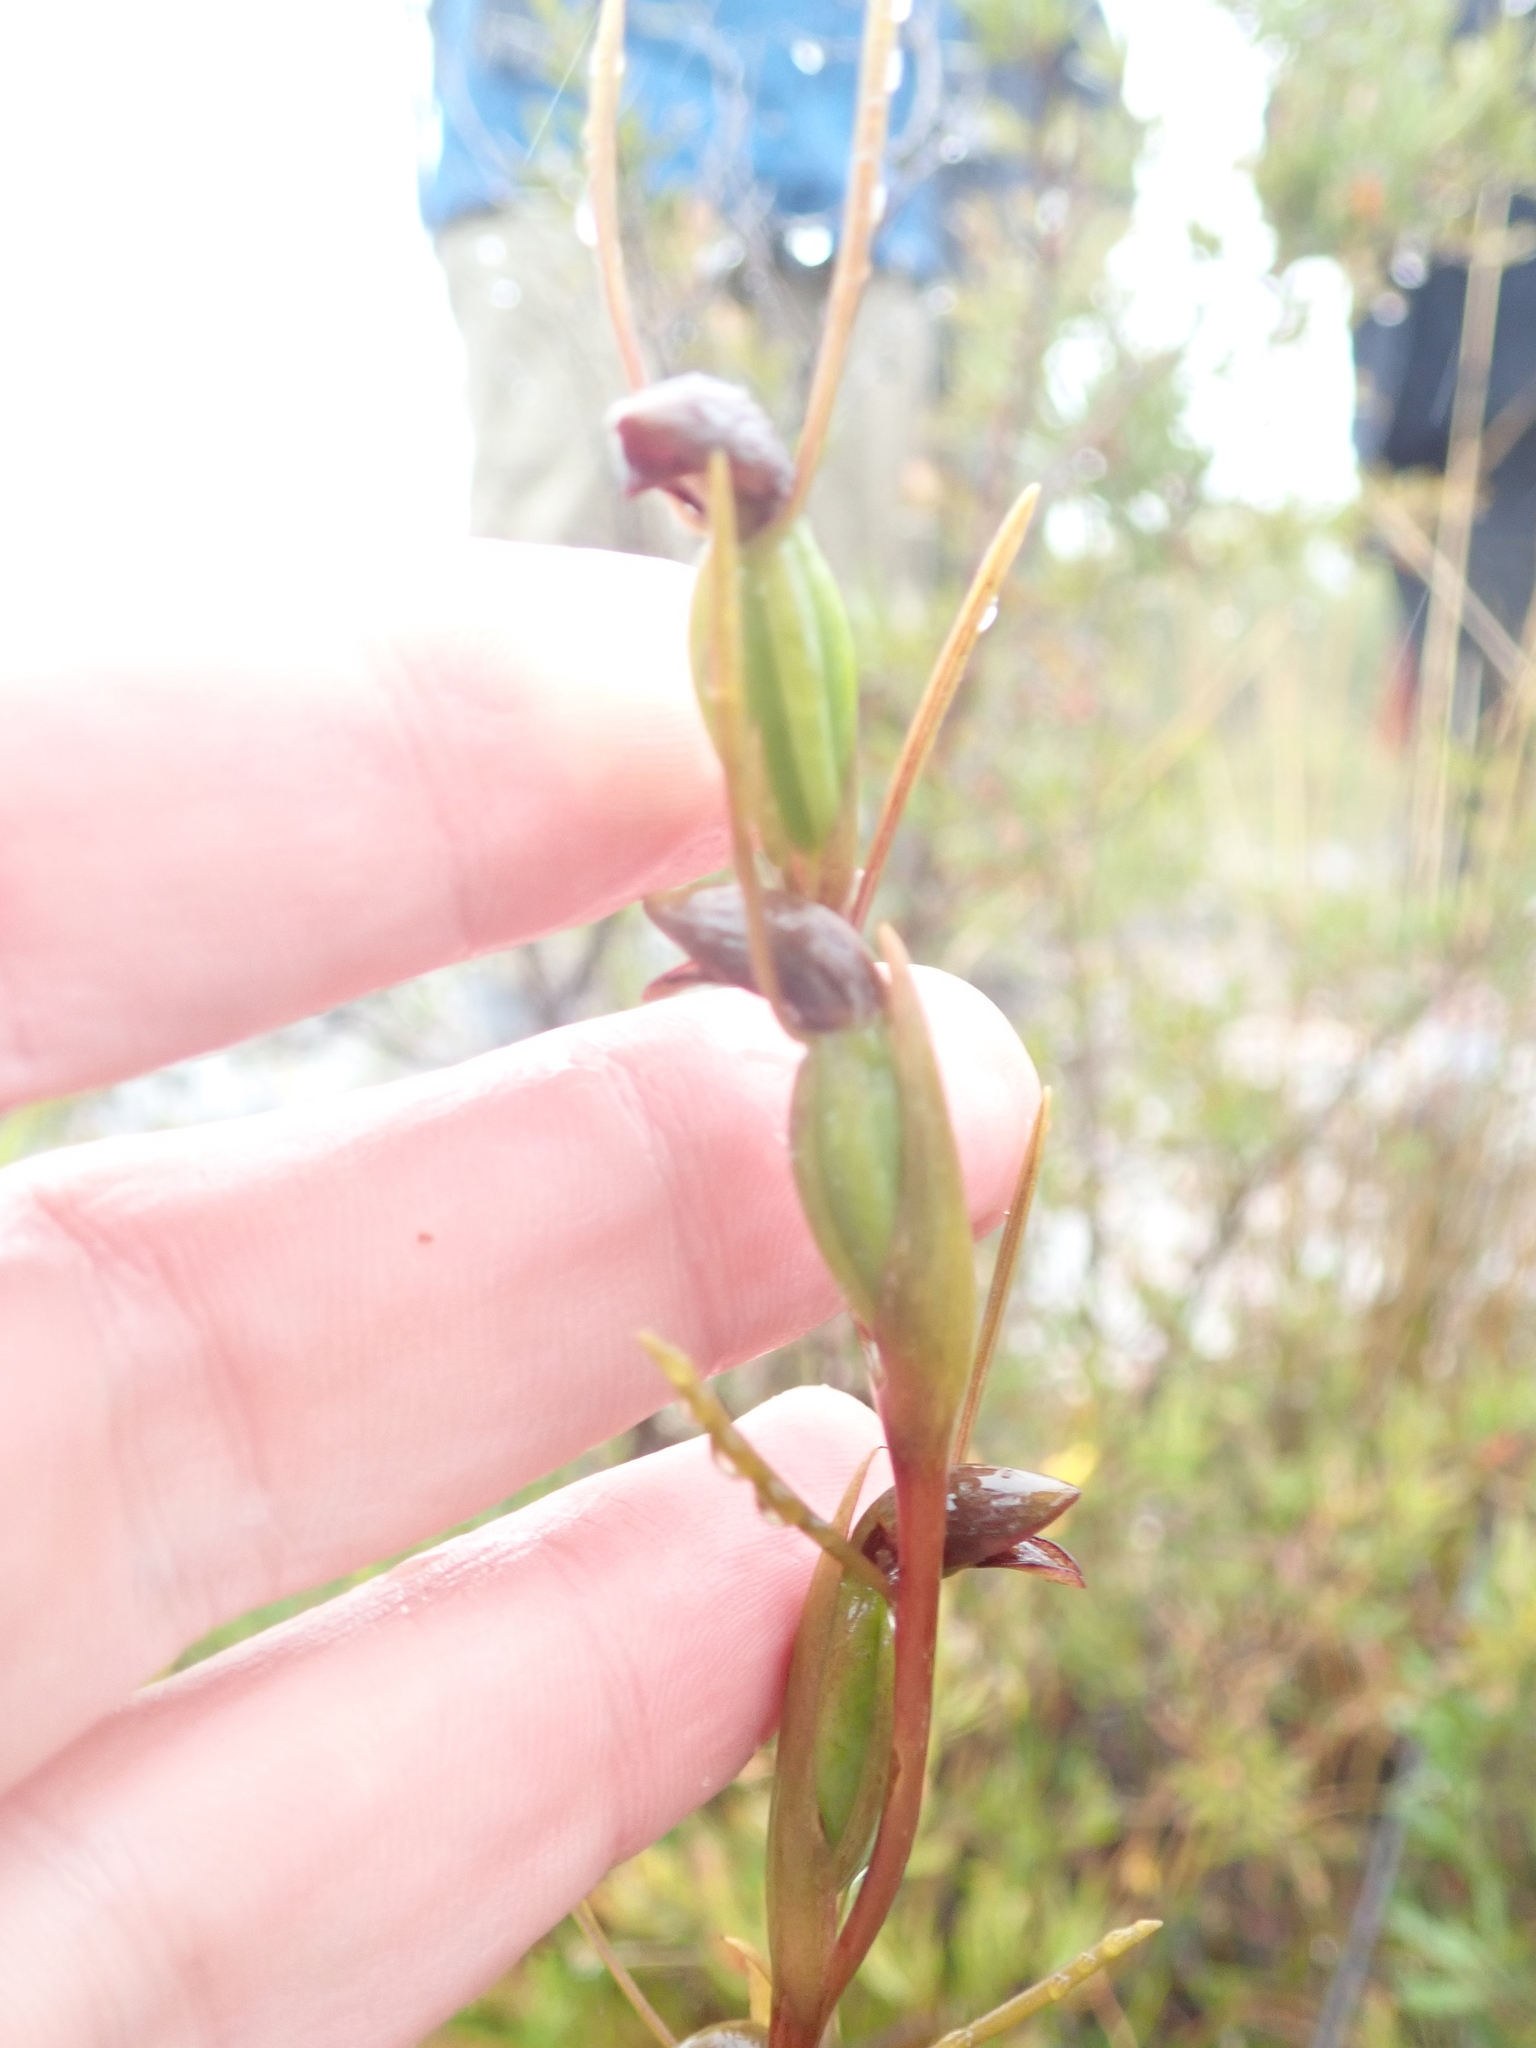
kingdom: Plantae
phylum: Tracheophyta
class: Liliopsida
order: Asparagales
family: Orchidaceae
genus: Orthoceras
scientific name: Orthoceras strictum
